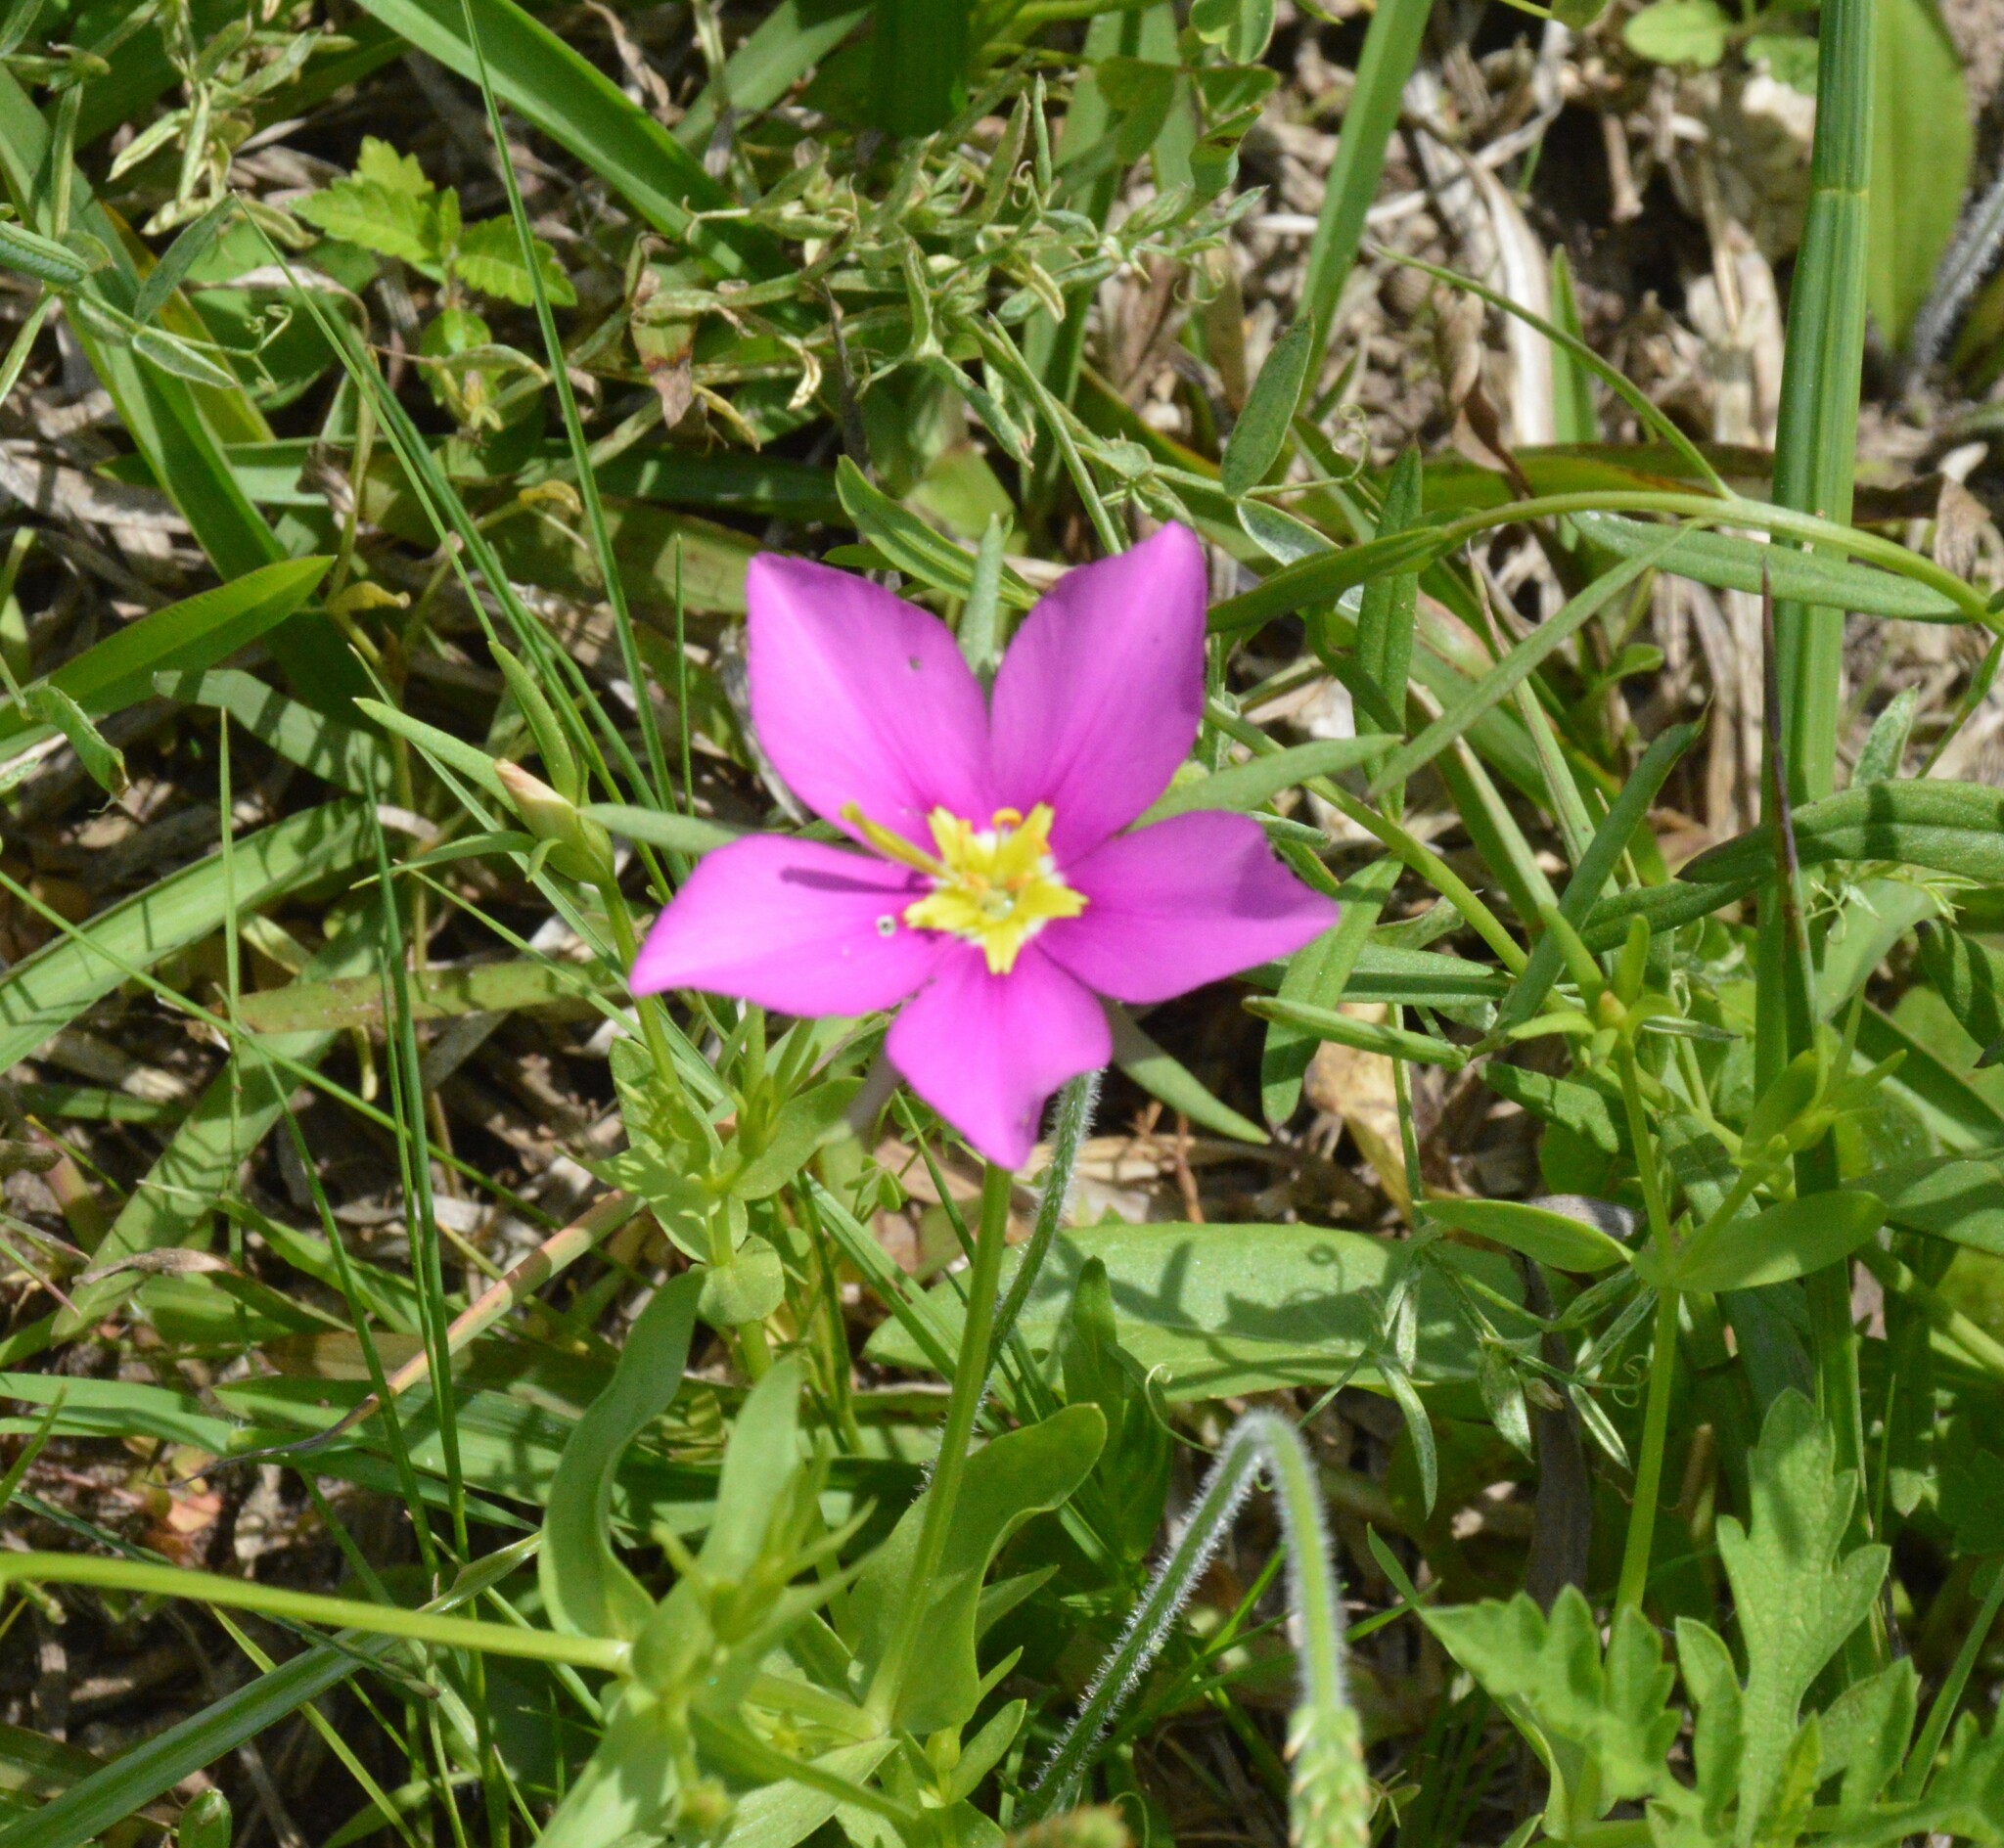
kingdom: Plantae
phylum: Tracheophyta
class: Magnoliopsida
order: Gentianales
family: Gentianaceae
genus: Sabatia
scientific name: Sabatia campestris
